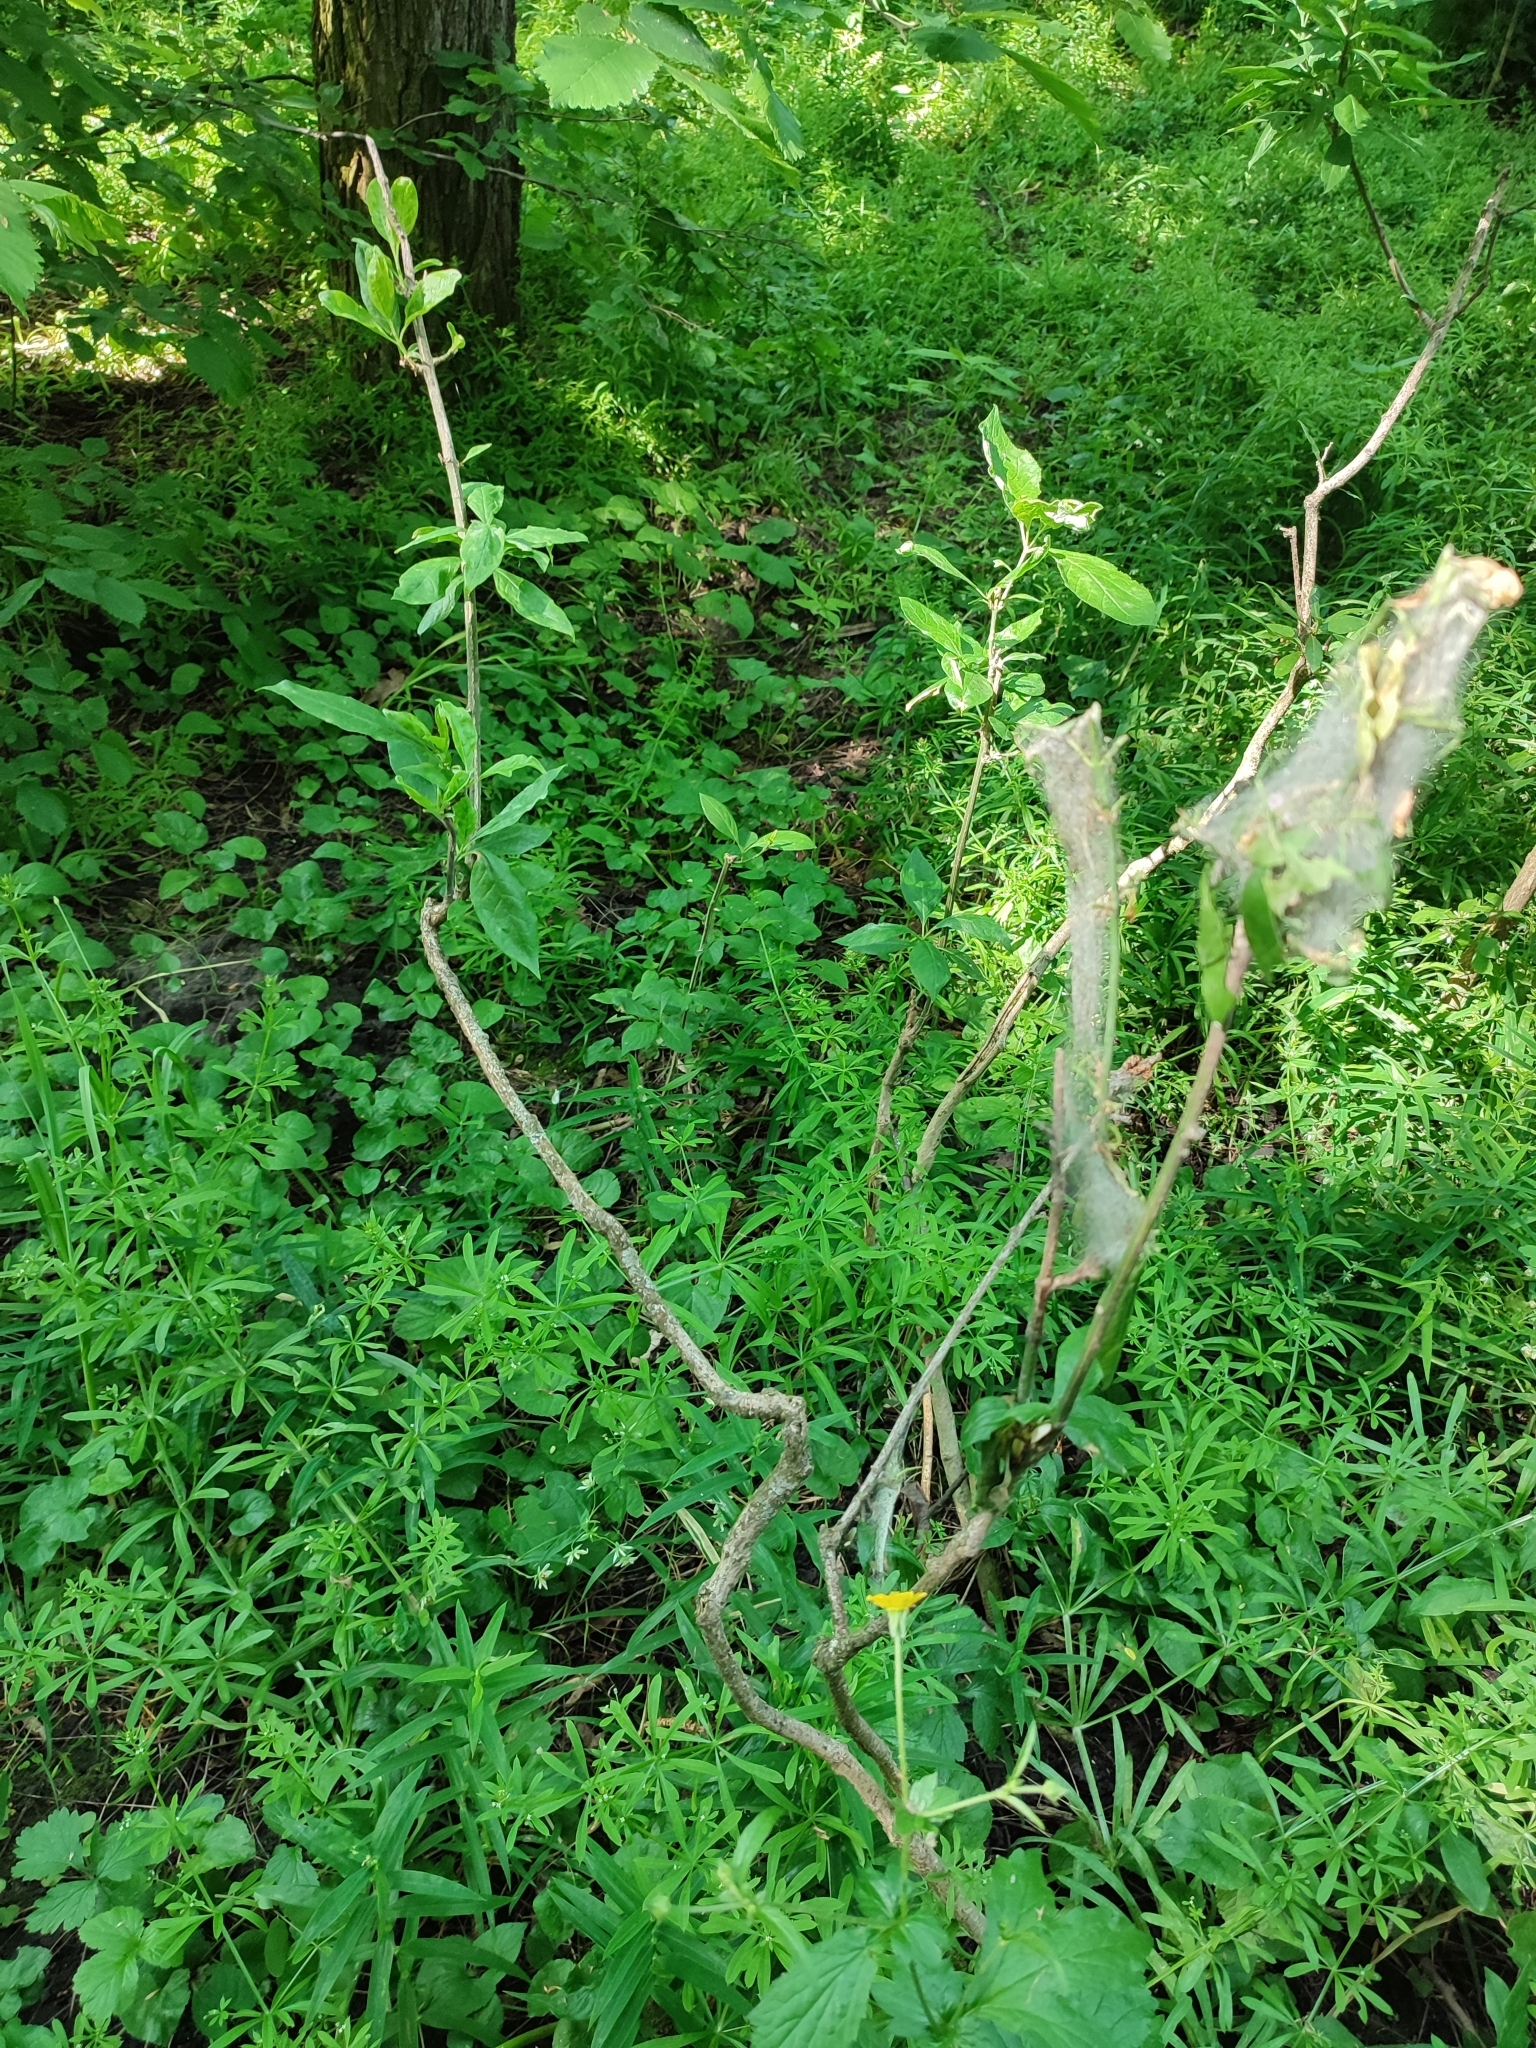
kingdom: Plantae
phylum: Tracheophyta
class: Magnoliopsida
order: Celastrales
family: Celastraceae
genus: Euonymus
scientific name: Euonymus europaeus
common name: Spindle
